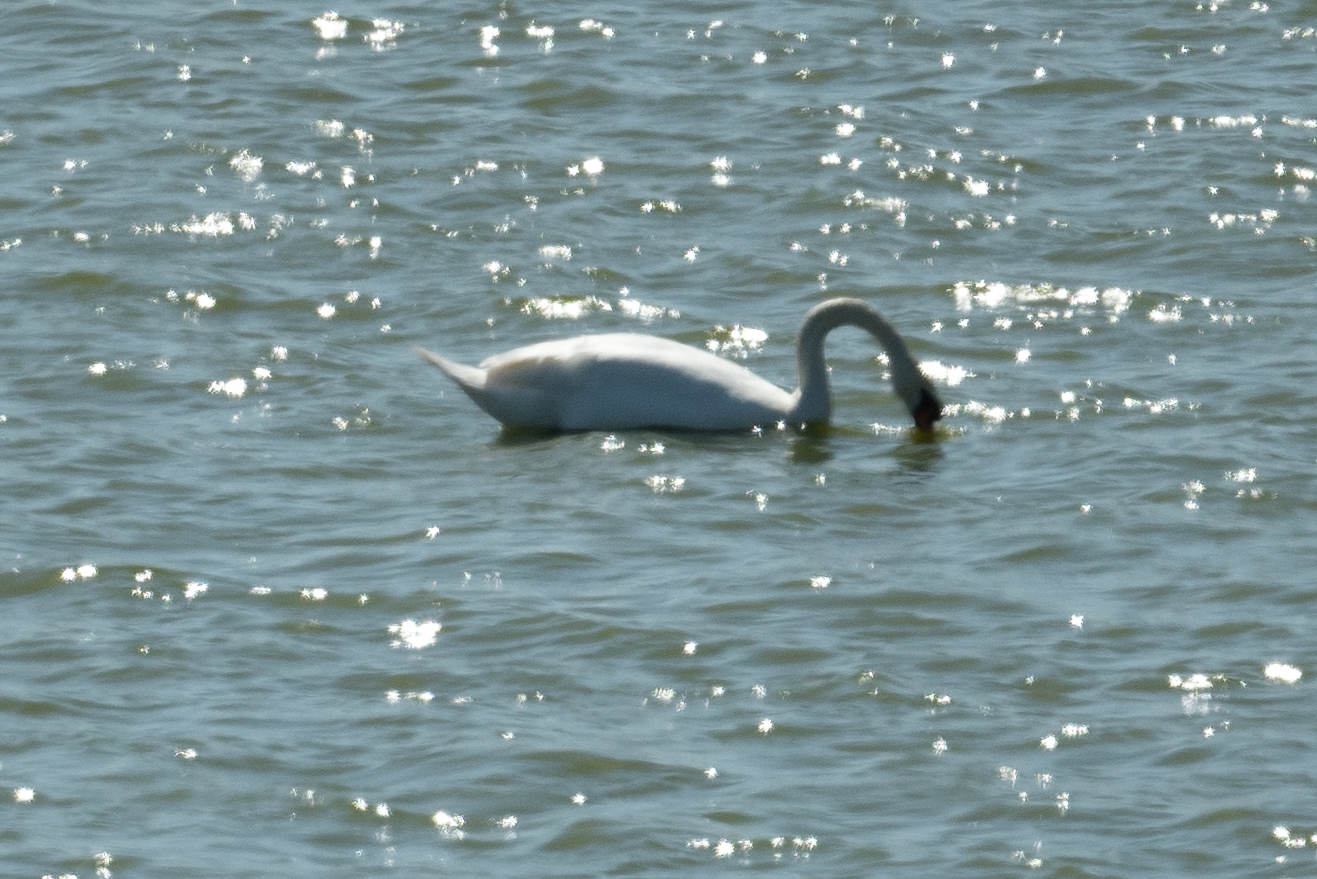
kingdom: Animalia
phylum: Chordata
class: Aves
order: Anseriformes
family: Anatidae
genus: Cygnus
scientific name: Cygnus olor
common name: Mute swan
